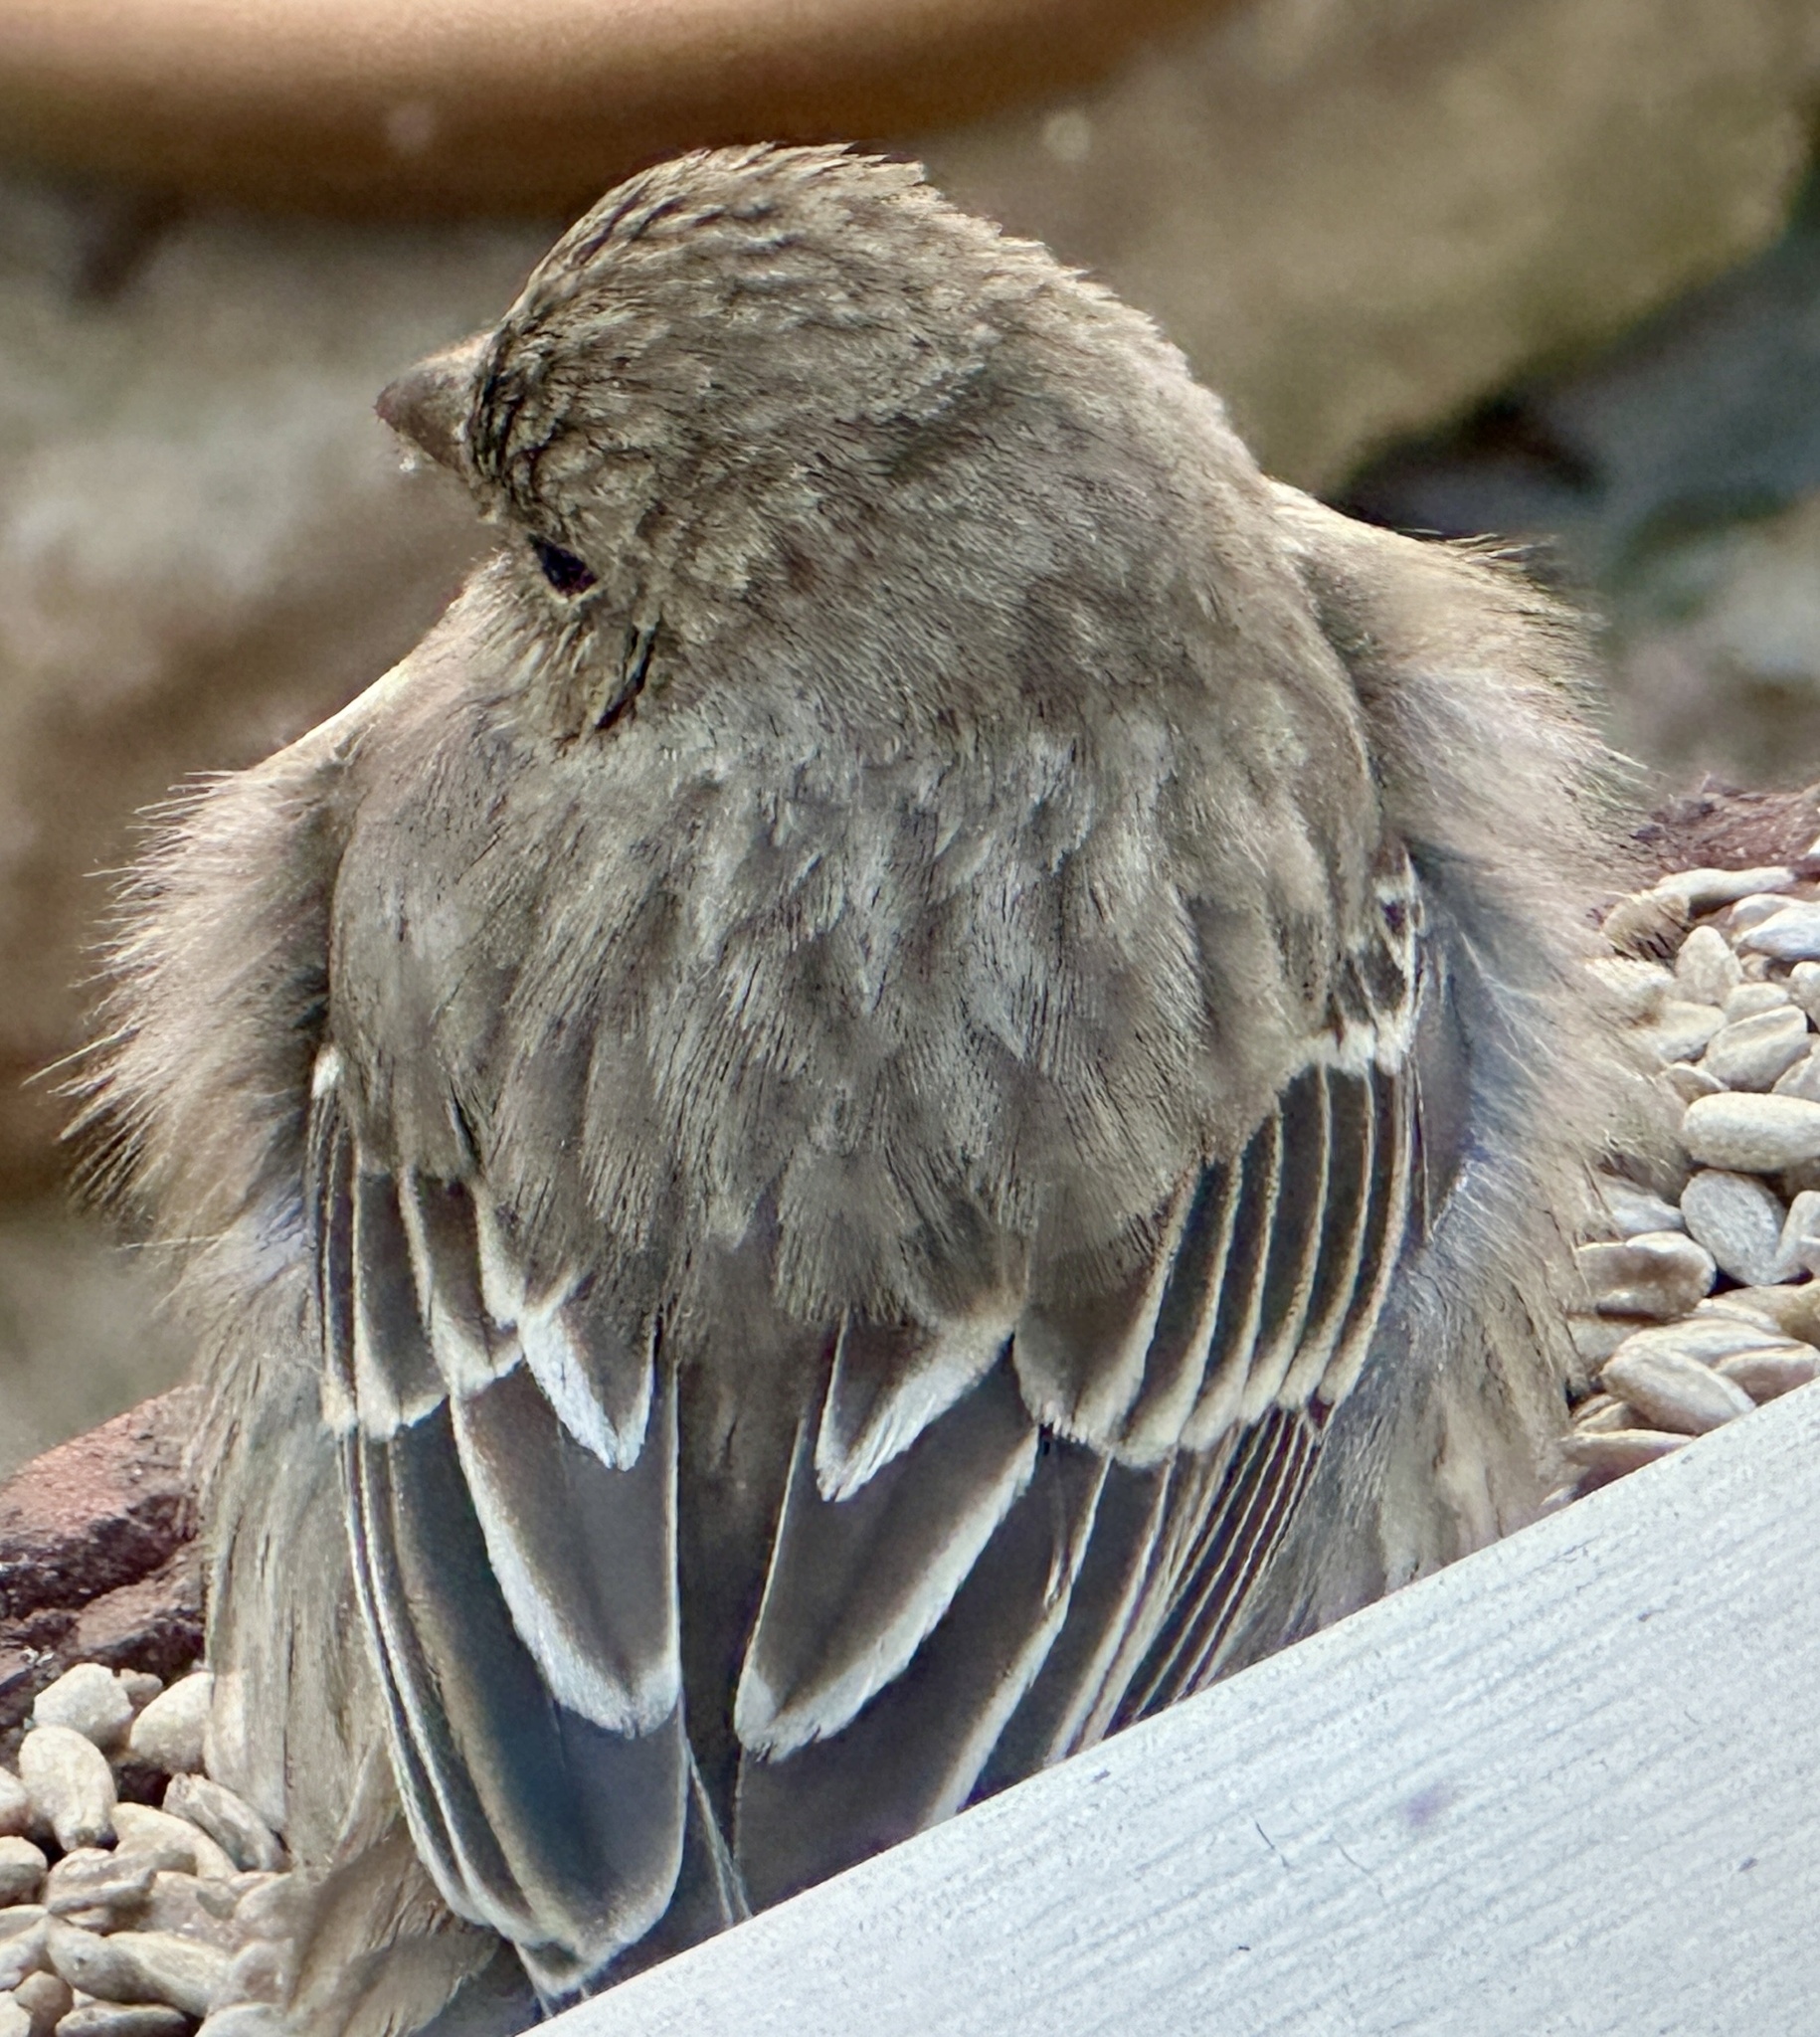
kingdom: Animalia
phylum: Chordata
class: Aves
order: Passeriformes
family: Fringillidae
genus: Haemorhous
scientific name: Haemorhous mexicanus
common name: House finch
